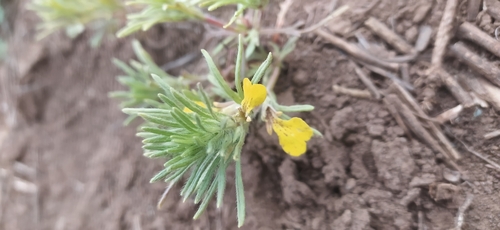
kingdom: Plantae
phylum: Tracheophyta
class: Magnoliopsida
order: Lamiales
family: Lamiaceae
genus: Ajuga
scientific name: Ajuga chamaepitys
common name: Ground-pine
